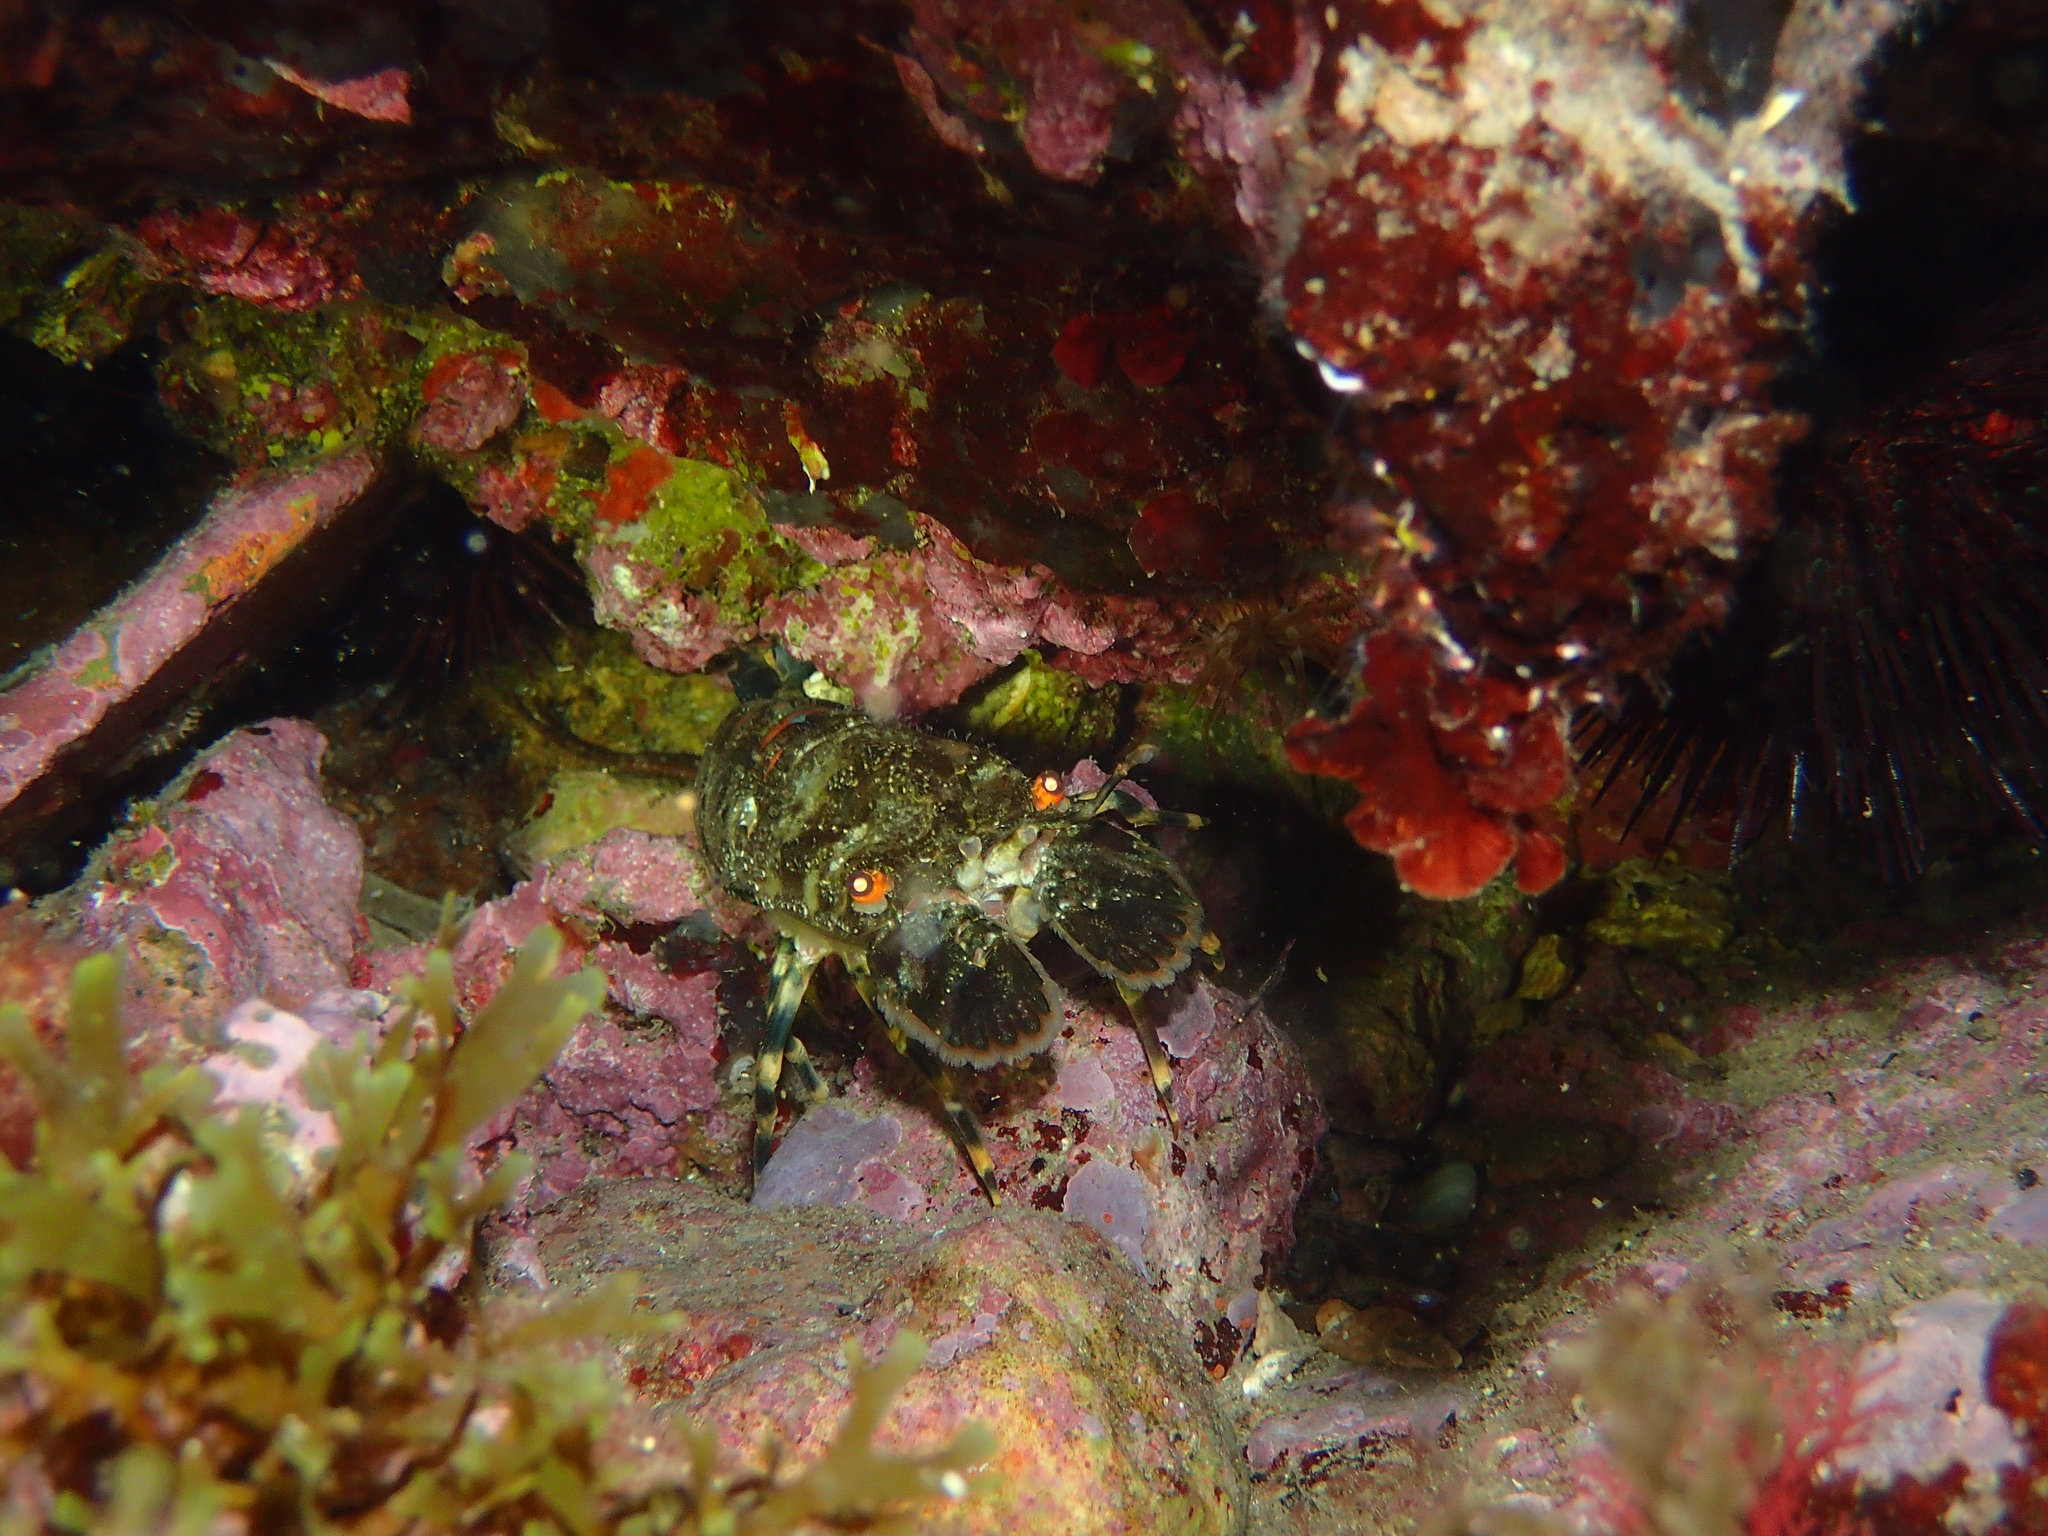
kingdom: Animalia
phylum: Arthropoda
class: Malacostraca
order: Decapoda
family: Scyllaridae
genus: Scyllarus
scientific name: Scyllarus arctus
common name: Small european locust lobster
